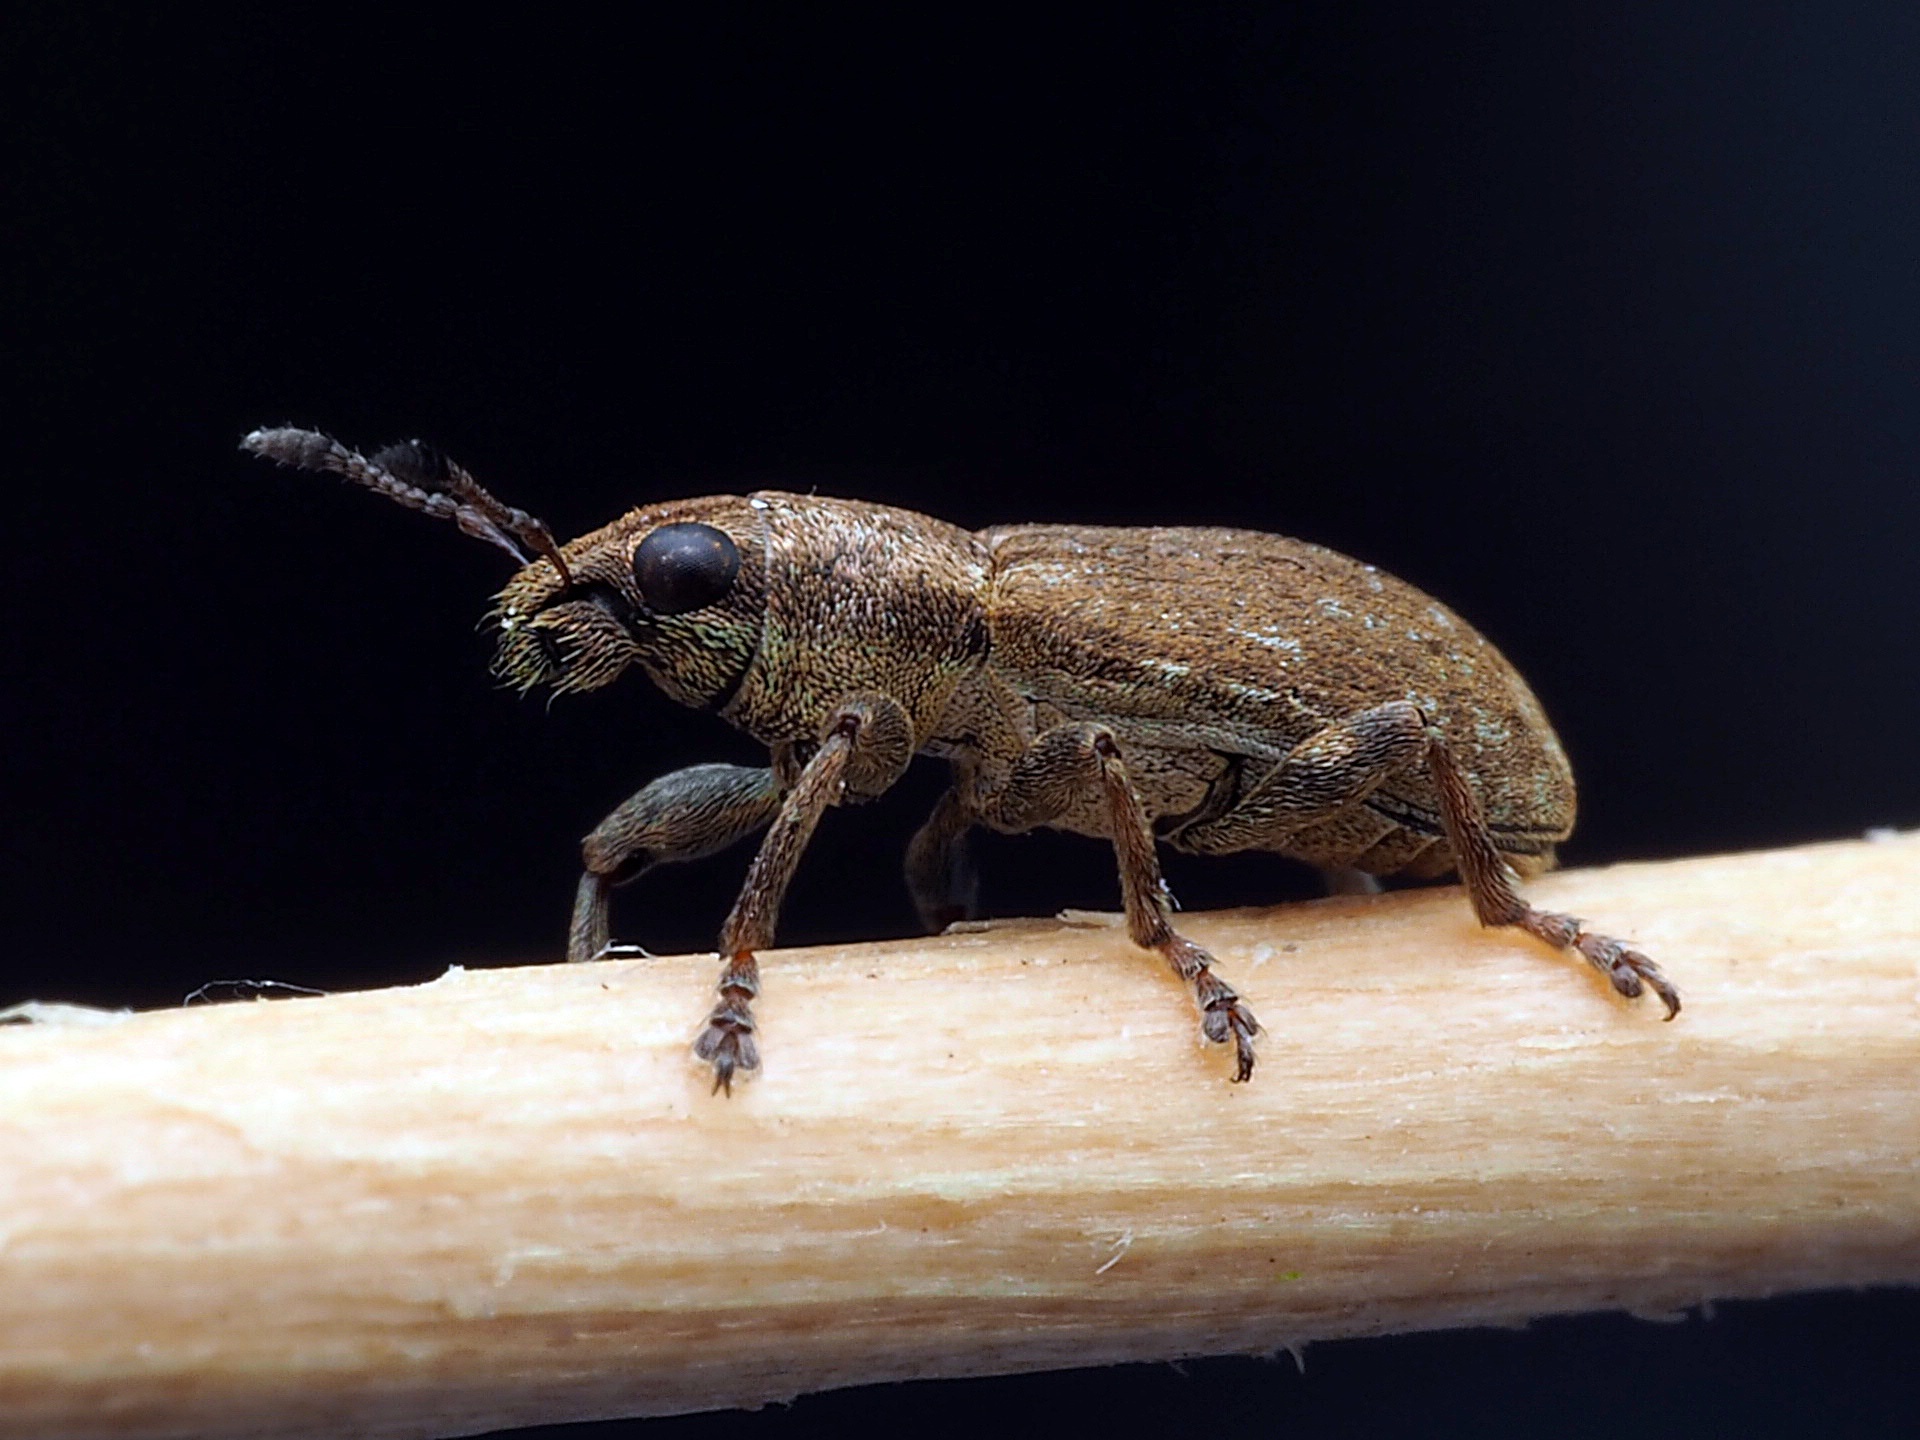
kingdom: Animalia
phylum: Arthropoda
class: Insecta
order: Coleoptera
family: Curculionidae
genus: Sitona
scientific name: Sitona obsoletus
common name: Weevil
